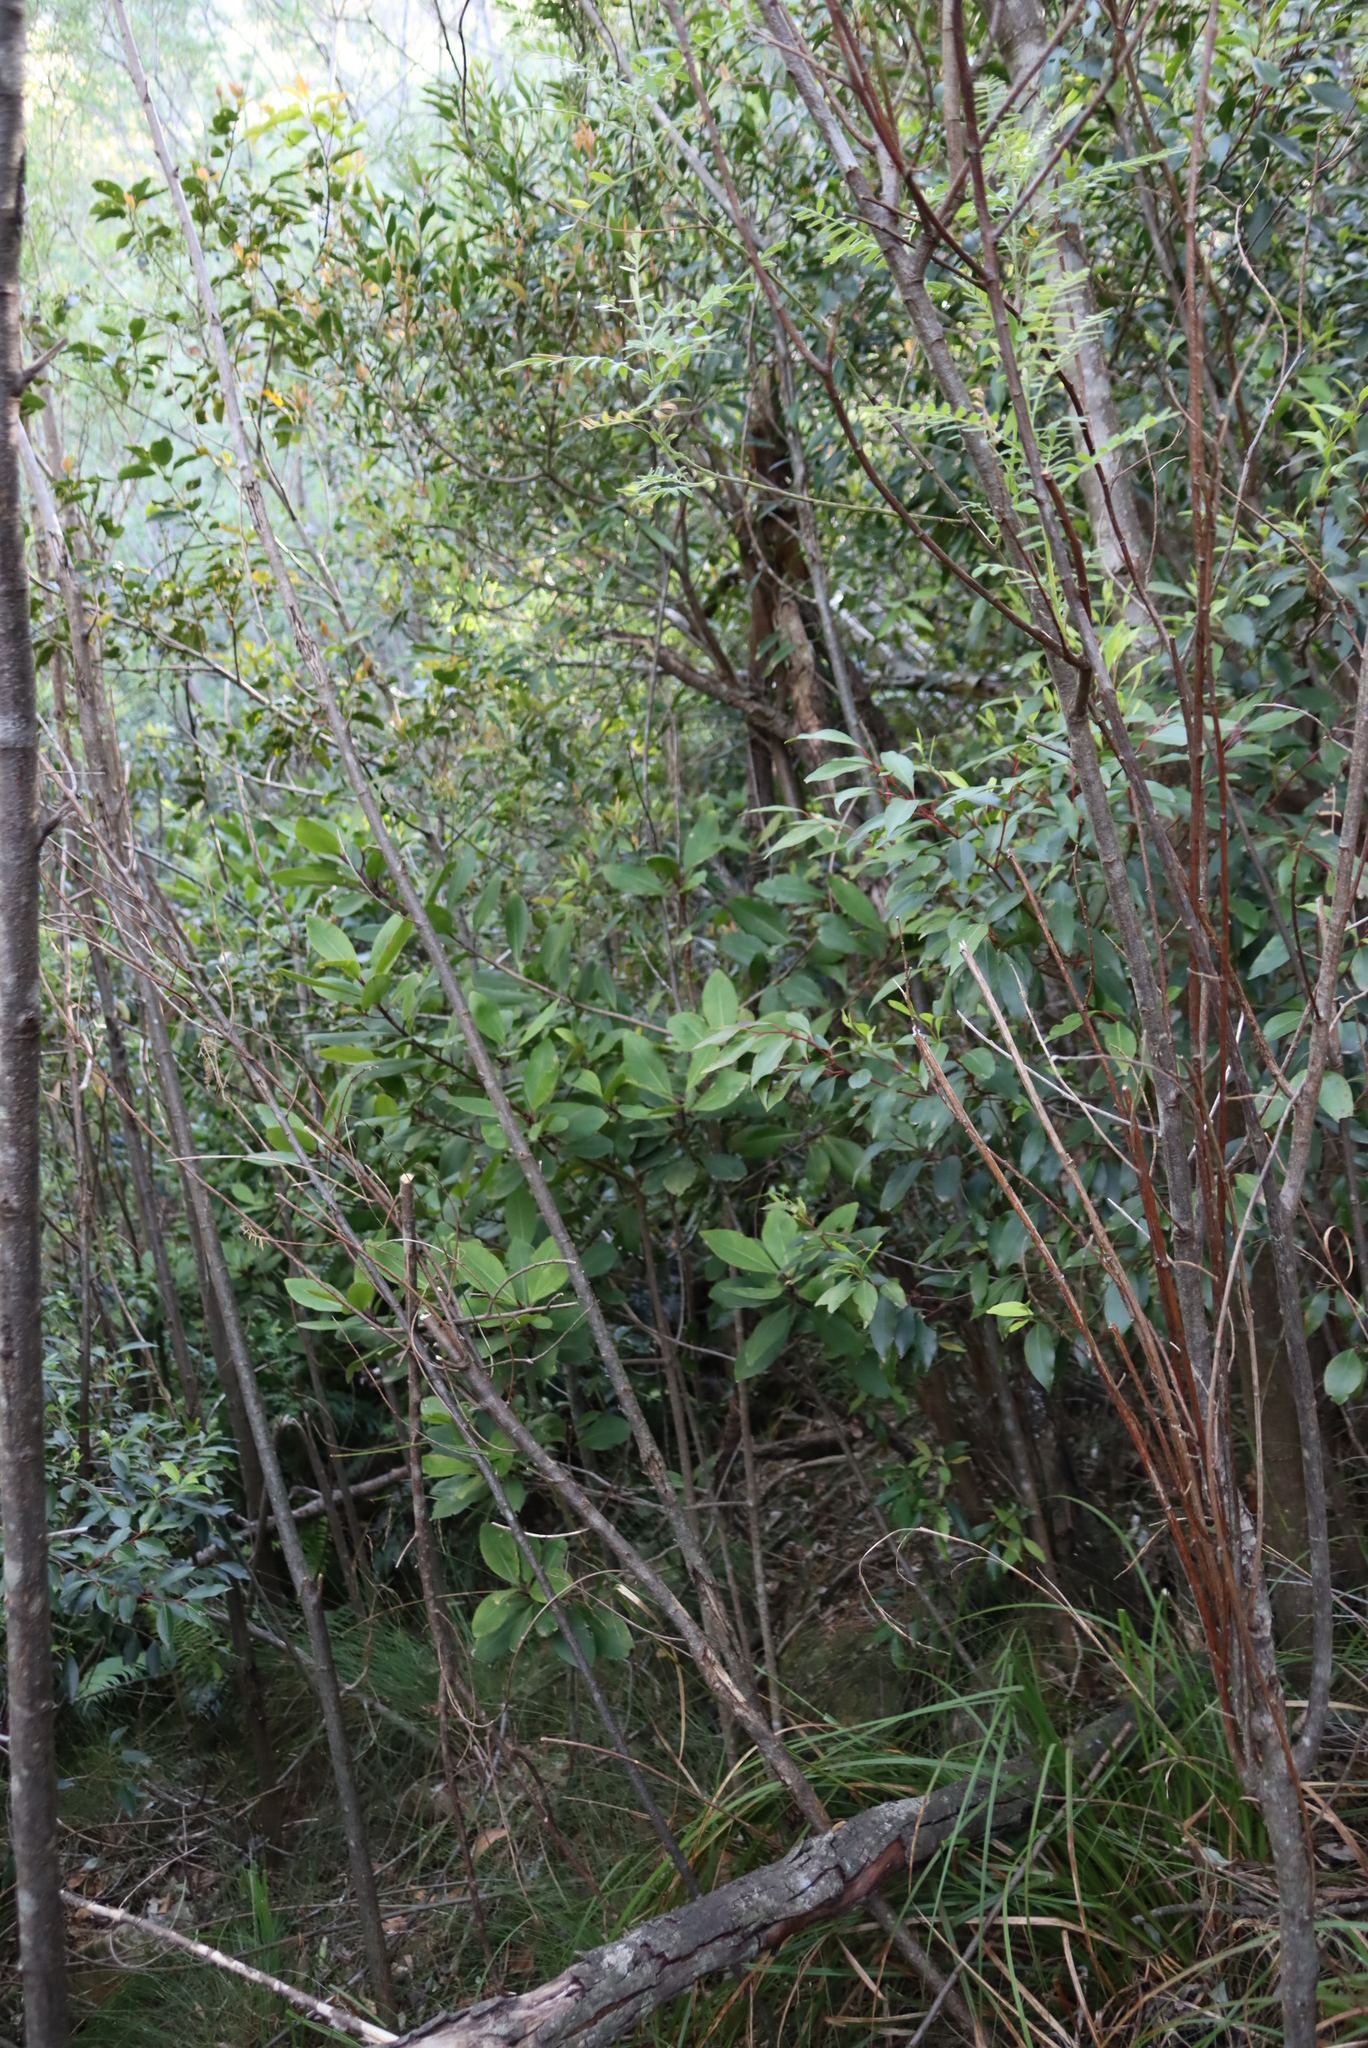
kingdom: Plantae
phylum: Tracheophyta
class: Magnoliopsida
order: Ericales
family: Primulaceae
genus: Myrsine
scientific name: Myrsine melanophloeos
